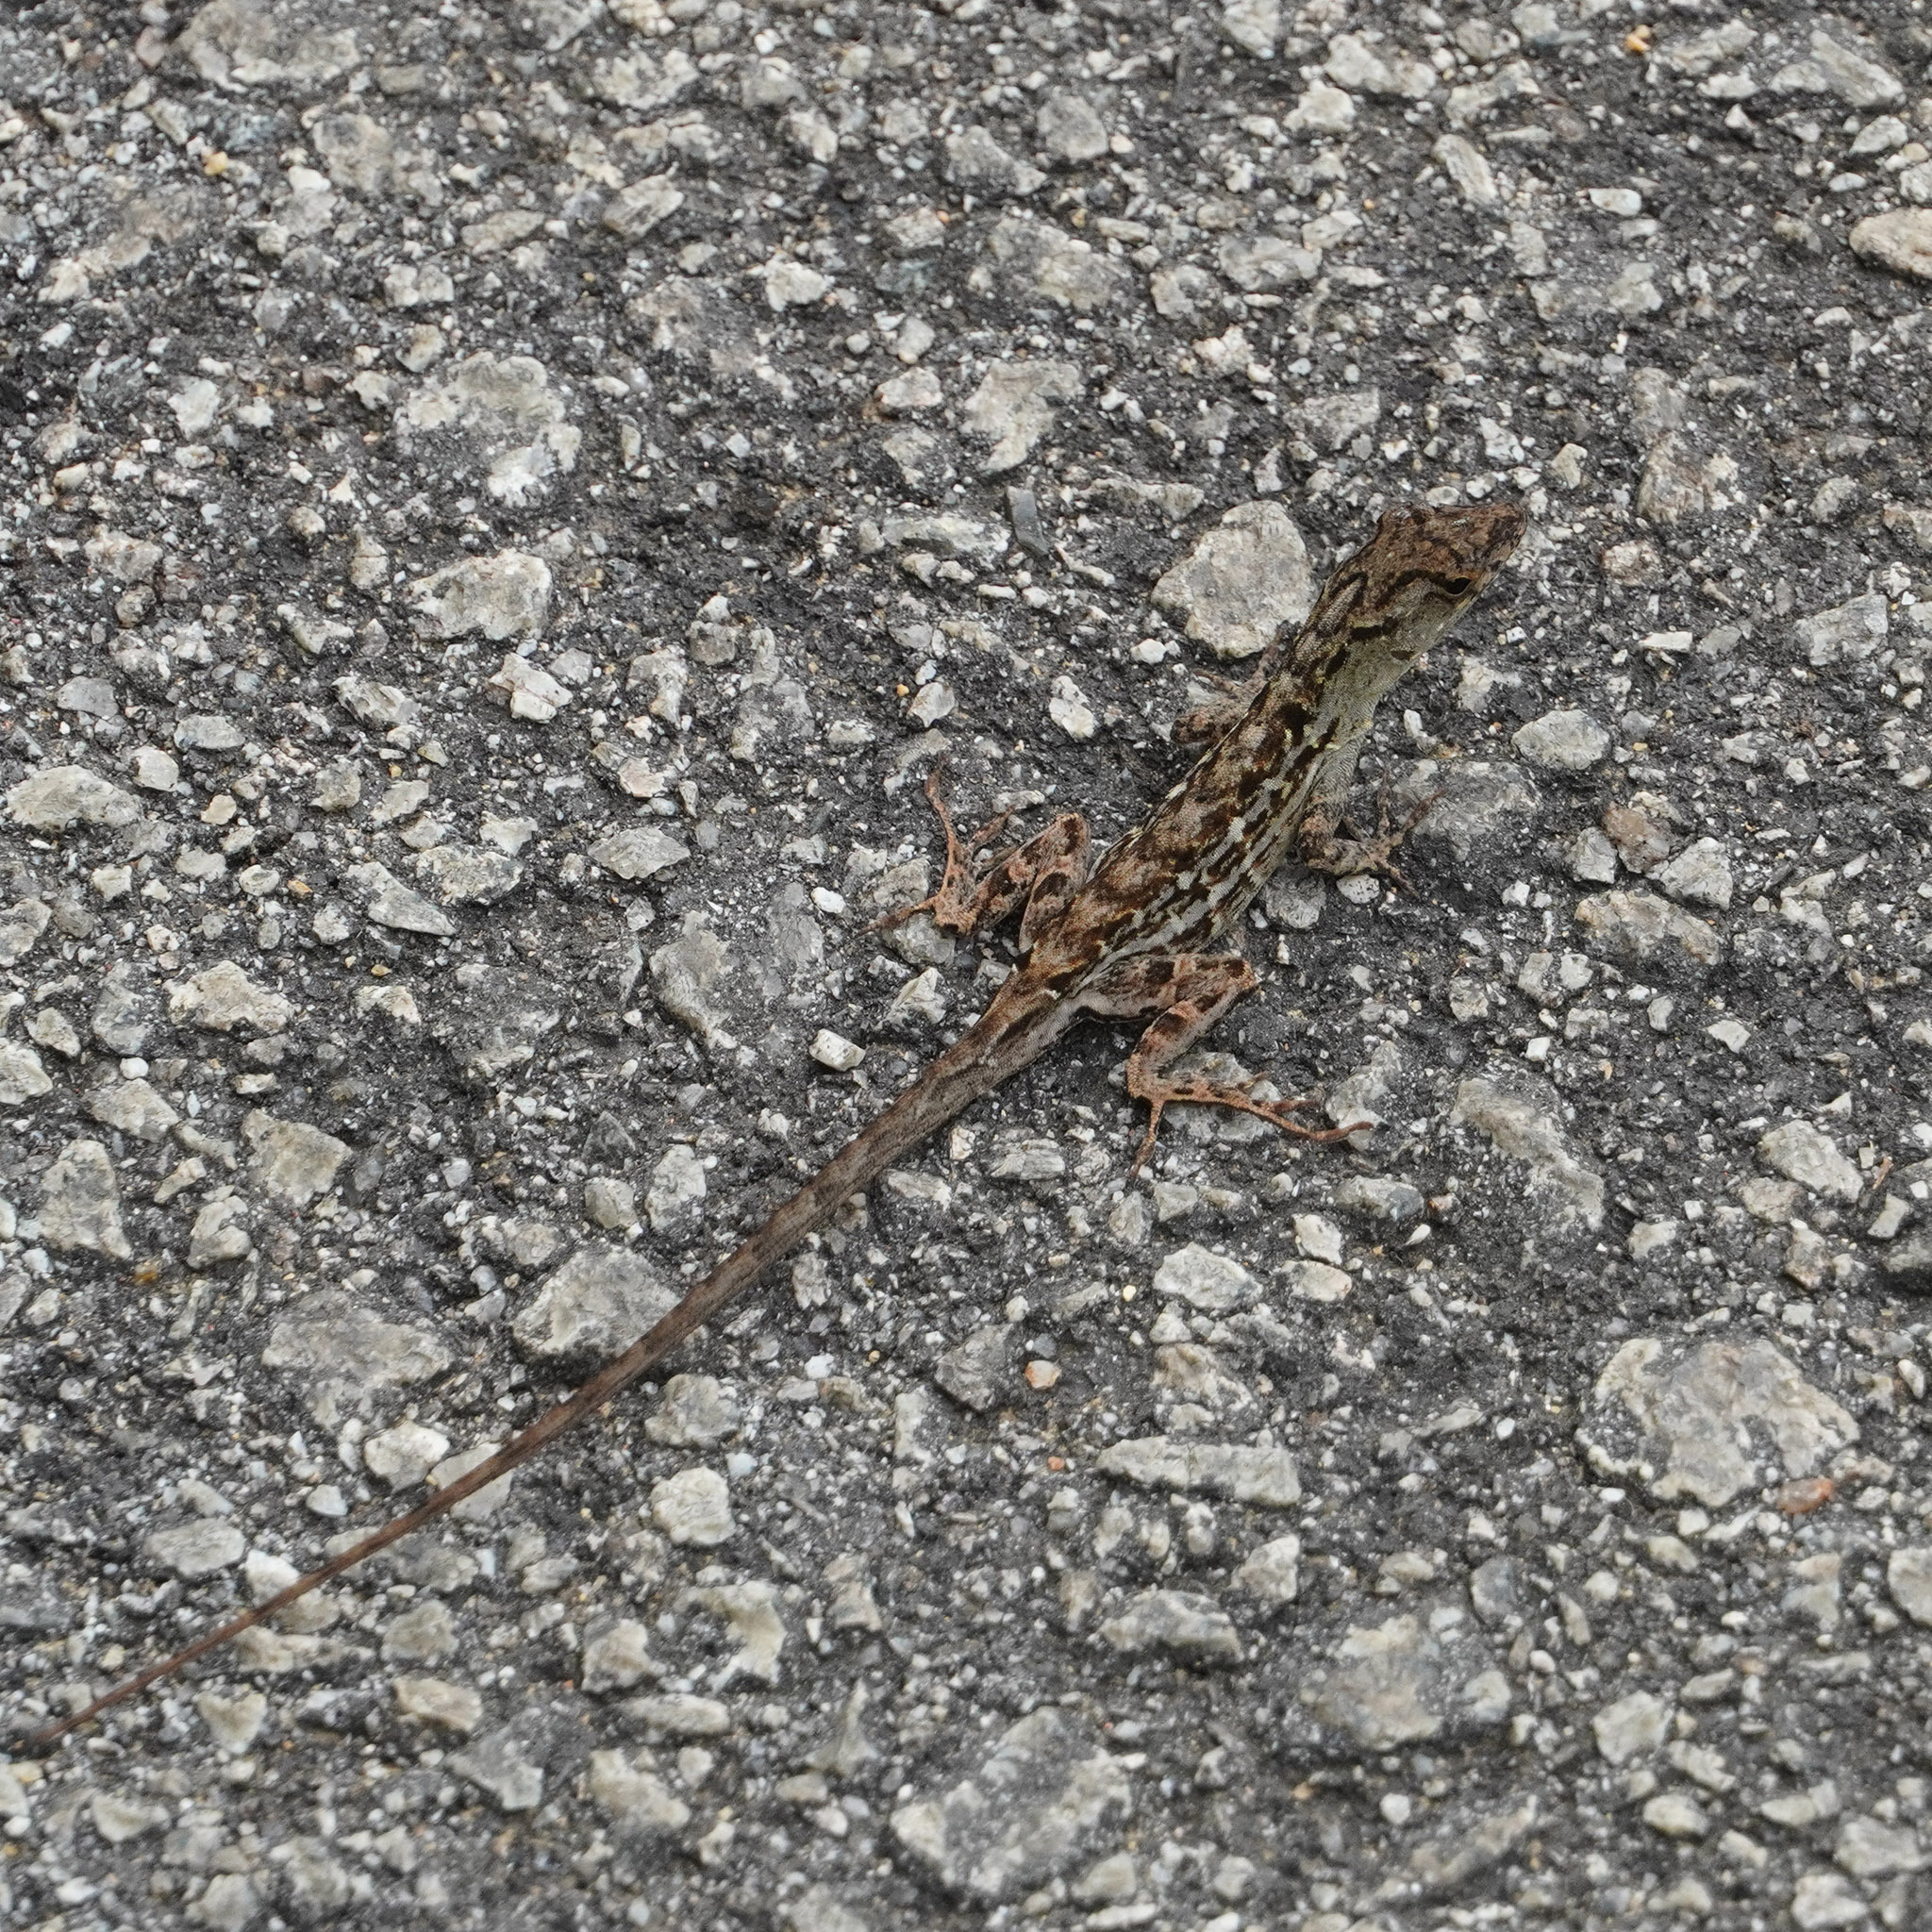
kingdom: Animalia
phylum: Chordata
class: Squamata
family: Dactyloidae
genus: Anolis
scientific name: Anolis sagrei
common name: Brown anole
